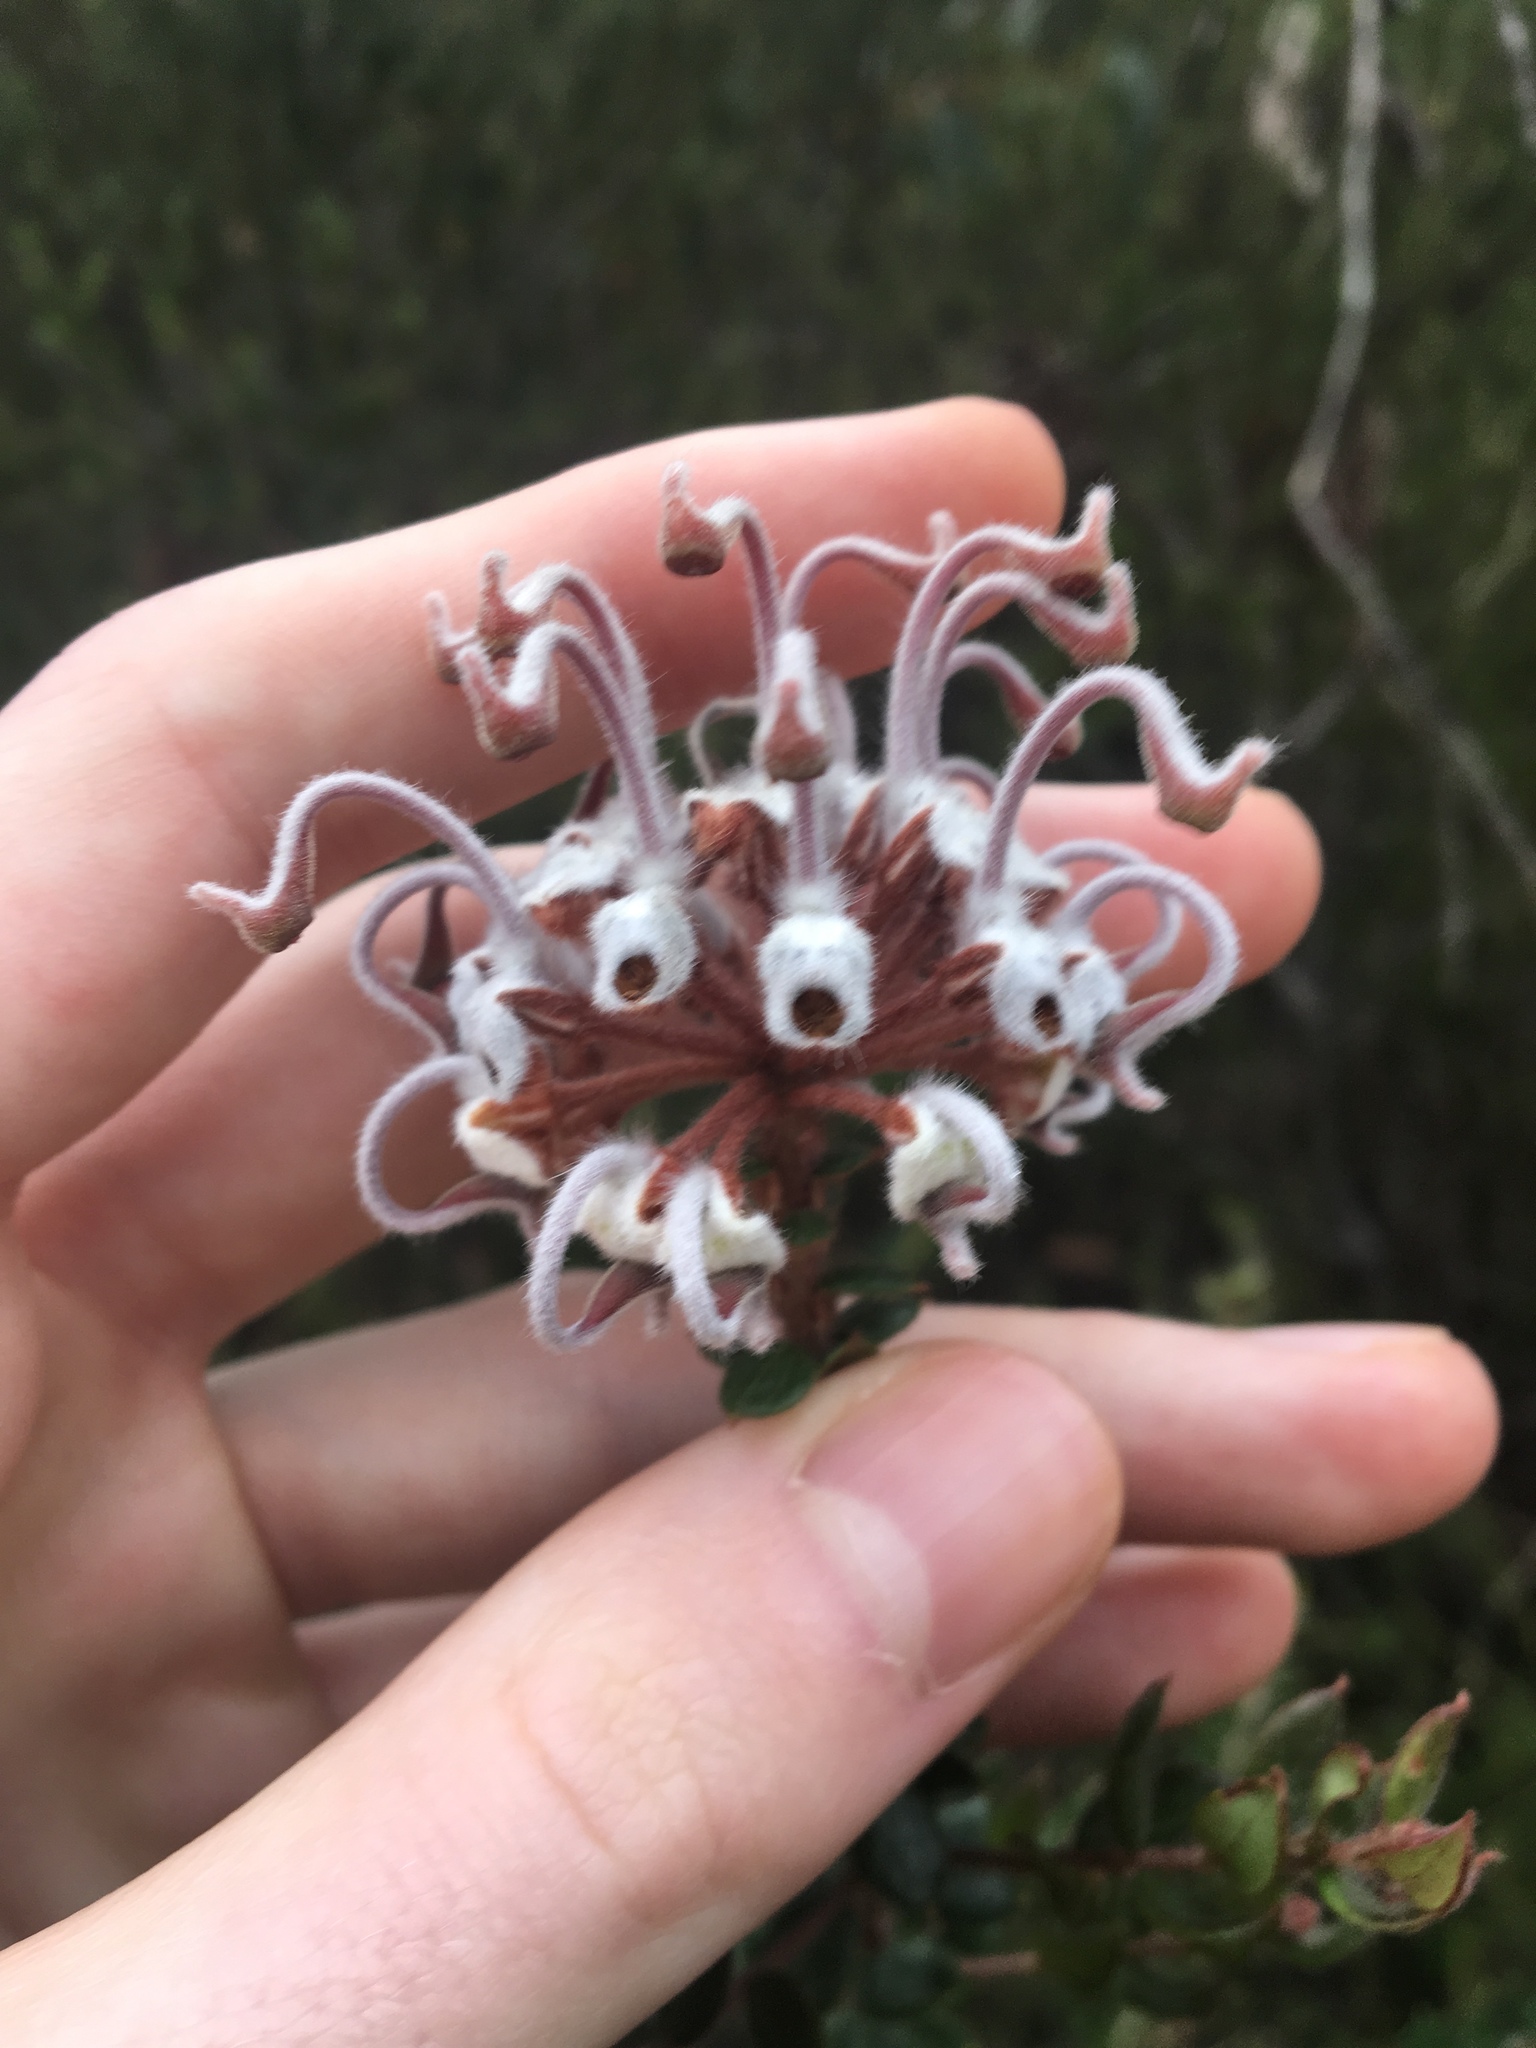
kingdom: Plantae
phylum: Tracheophyta
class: Magnoliopsida
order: Proteales
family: Proteaceae
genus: Grevillea
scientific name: Grevillea buxifolia
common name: Grey spiderflower
